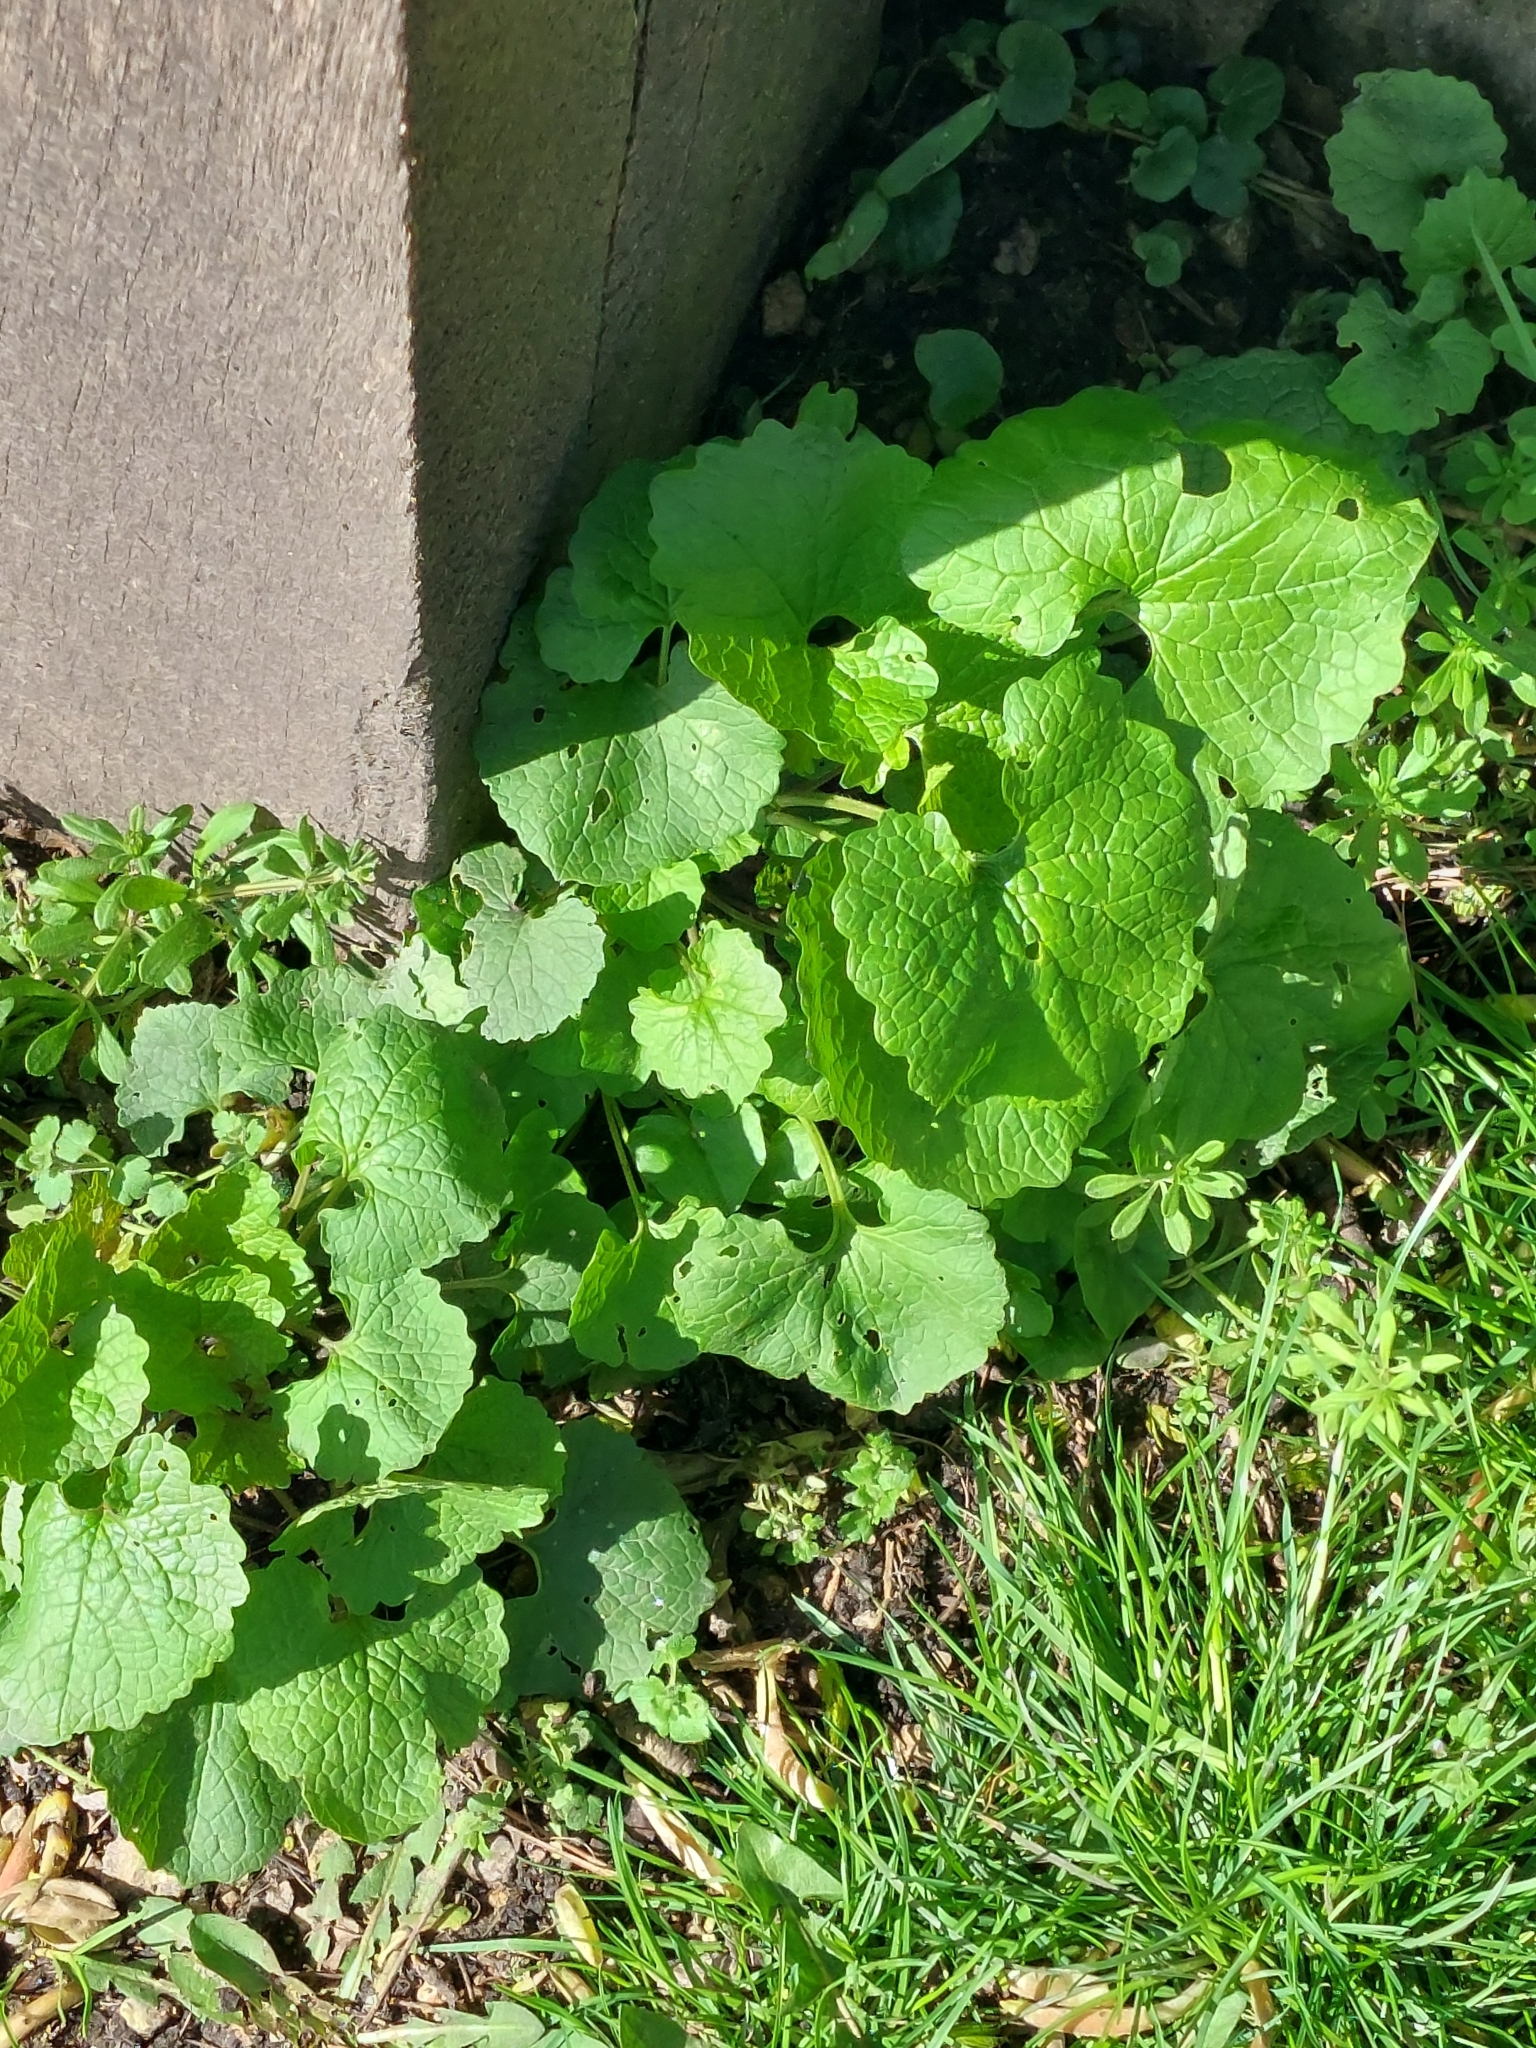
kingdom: Plantae
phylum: Tracheophyta
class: Magnoliopsida
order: Brassicales
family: Brassicaceae
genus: Alliaria
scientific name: Alliaria petiolata
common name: Garlic mustard
